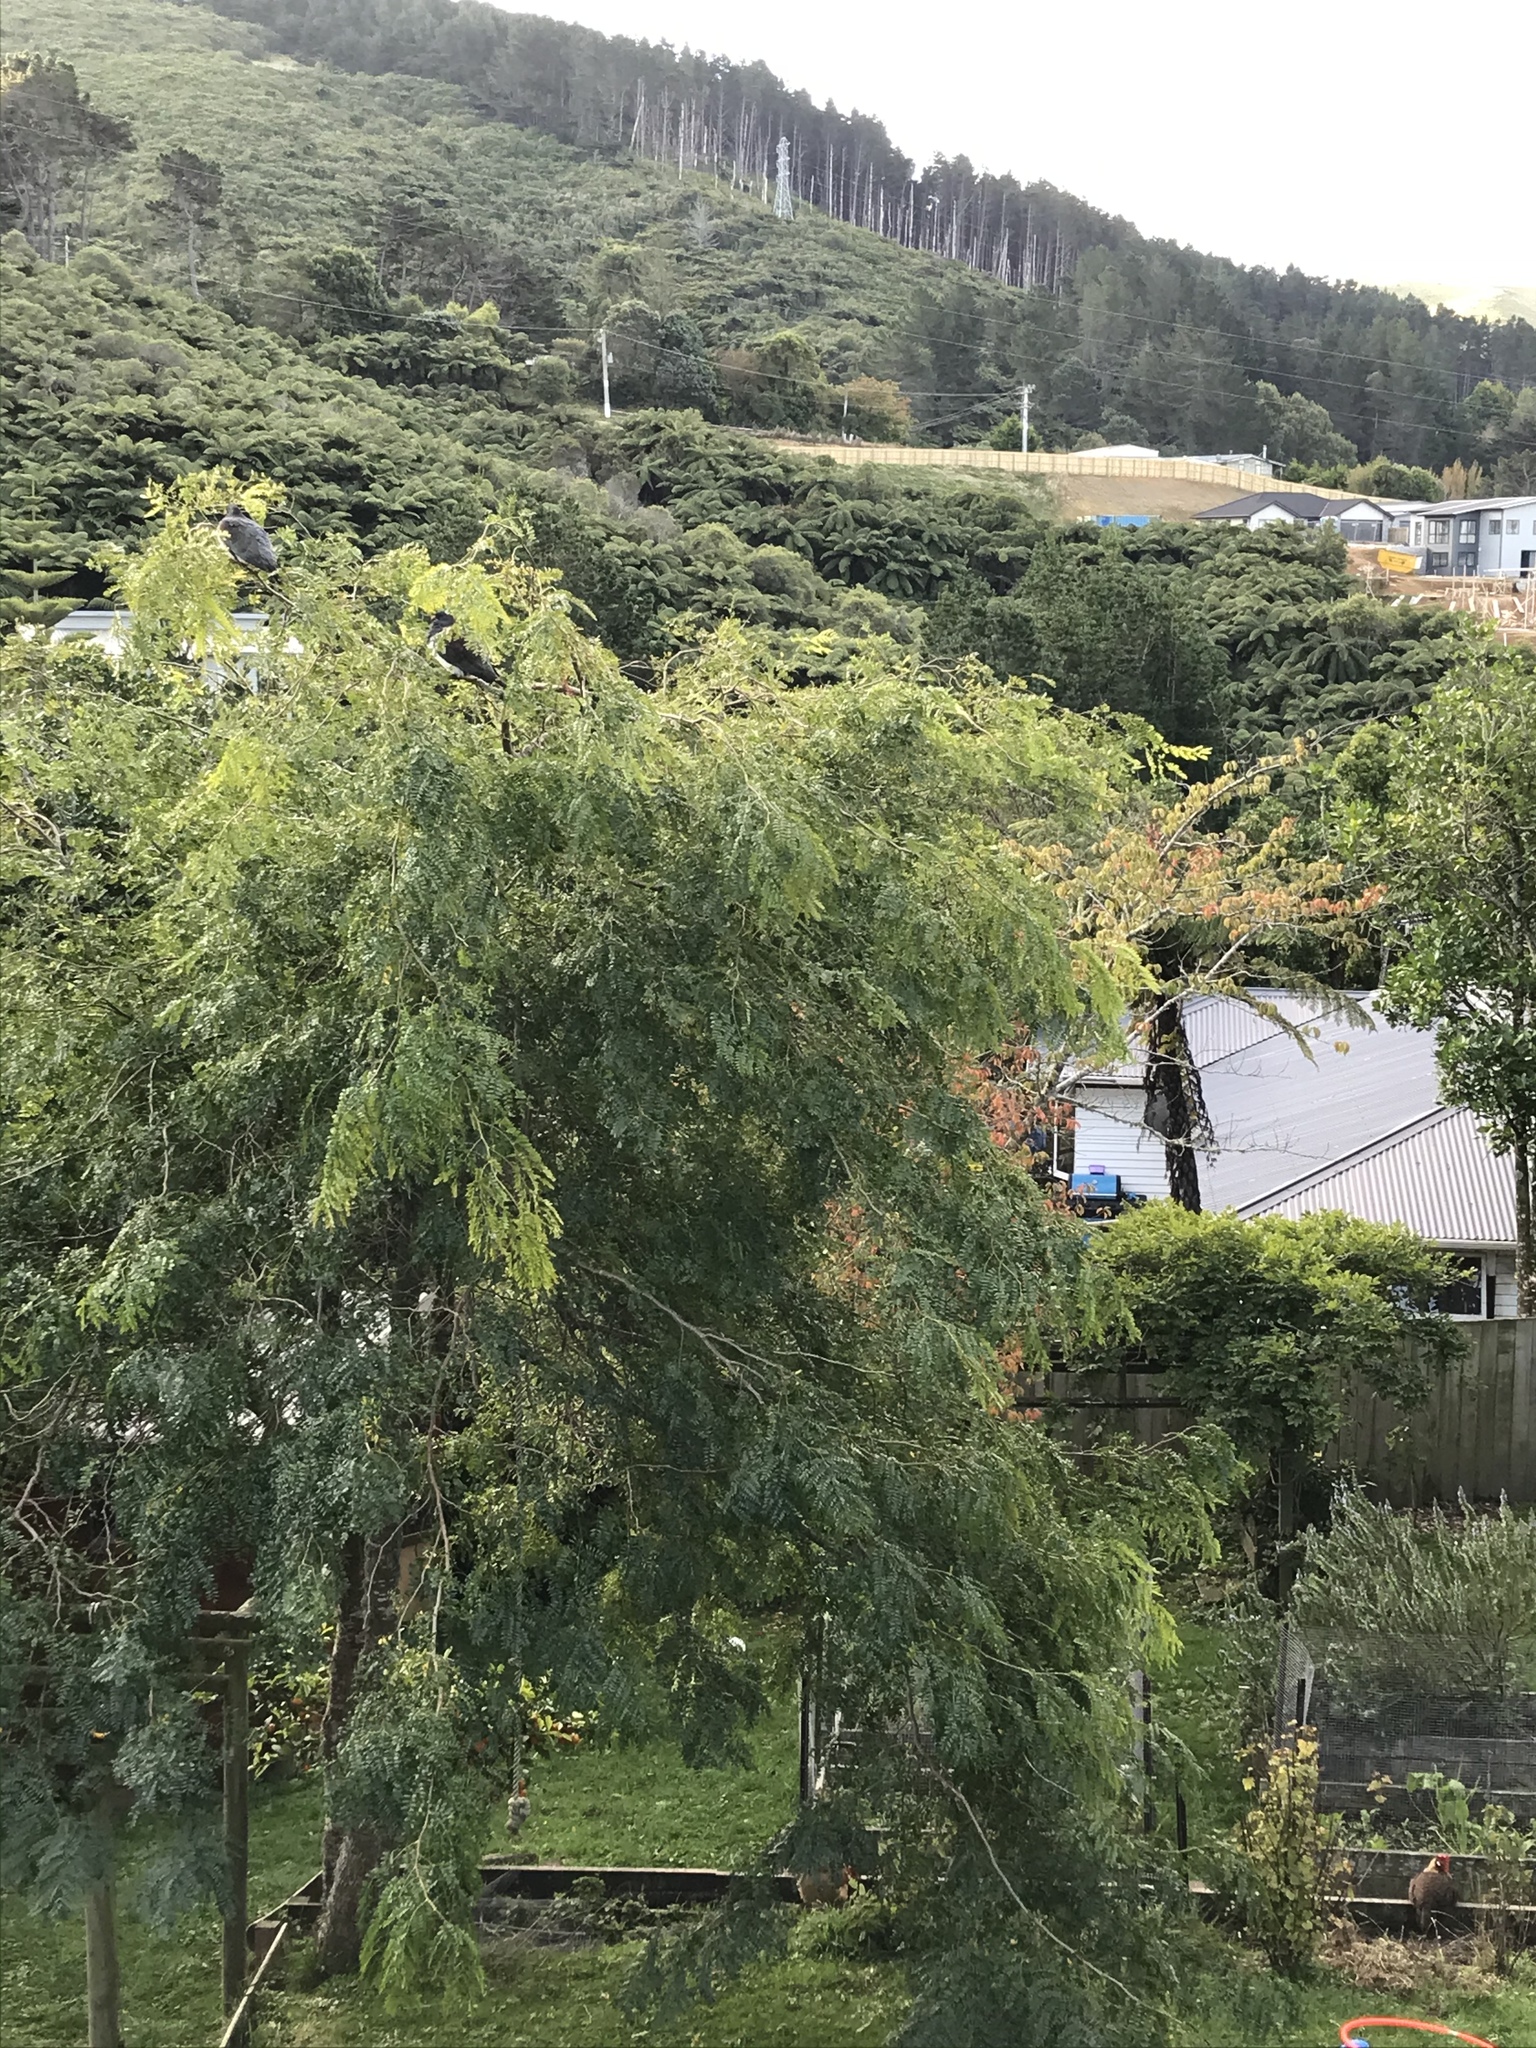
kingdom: Animalia
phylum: Chordata
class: Aves
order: Columbiformes
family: Columbidae
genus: Hemiphaga
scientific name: Hemiphaga novaeseelandiae
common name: New zealand pigeon
